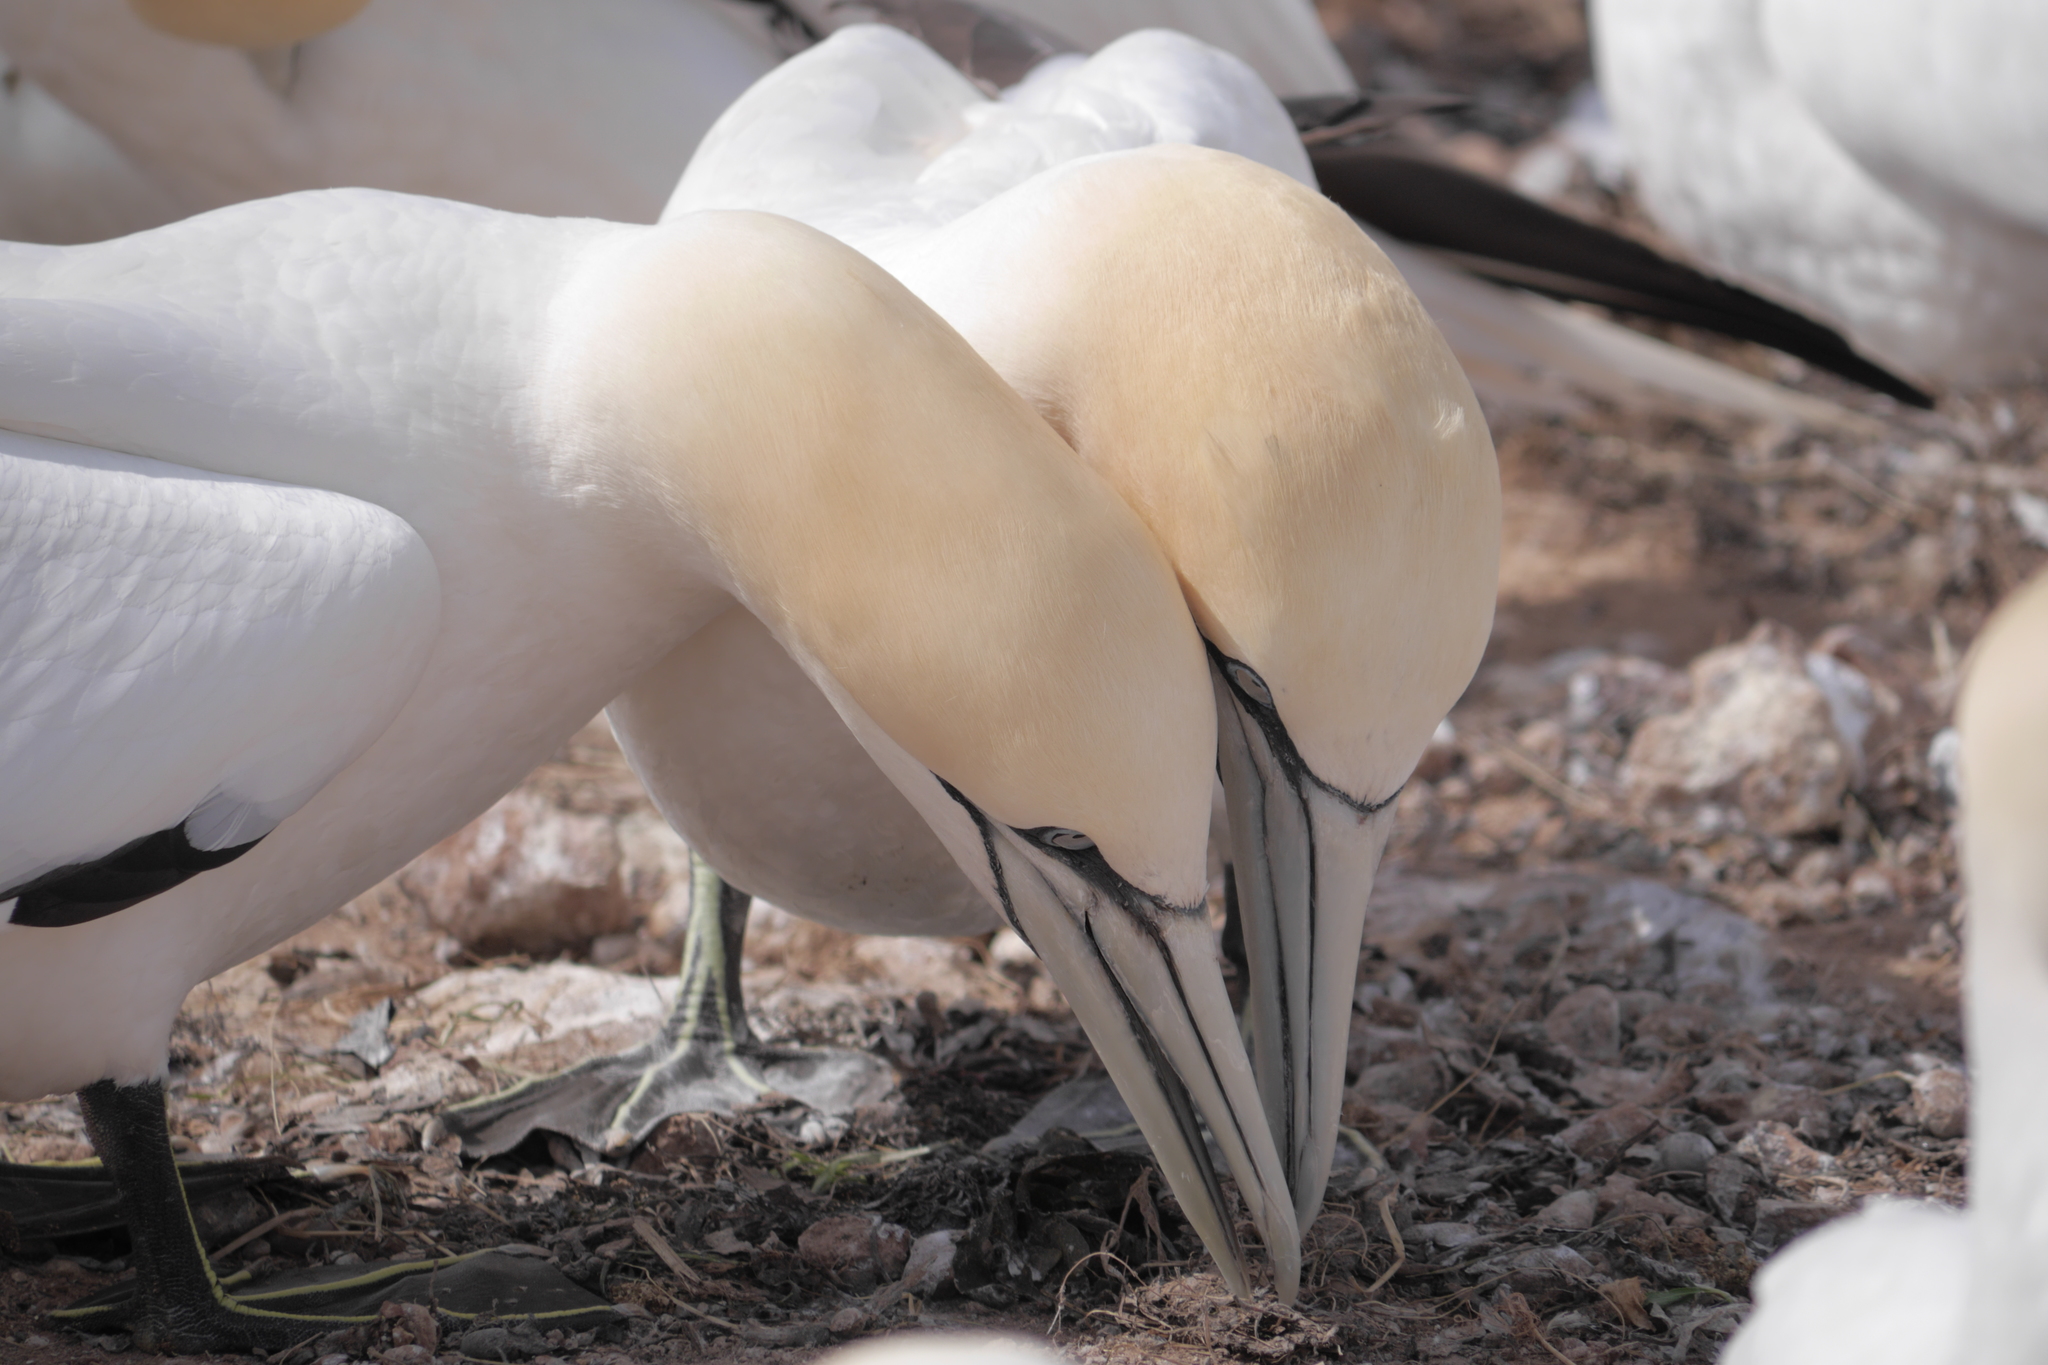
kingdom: Animalia
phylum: Chordata
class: Aves
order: Suliformes
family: Sulidae
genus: Morus
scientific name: Morus bassanus
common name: Northern gannet
